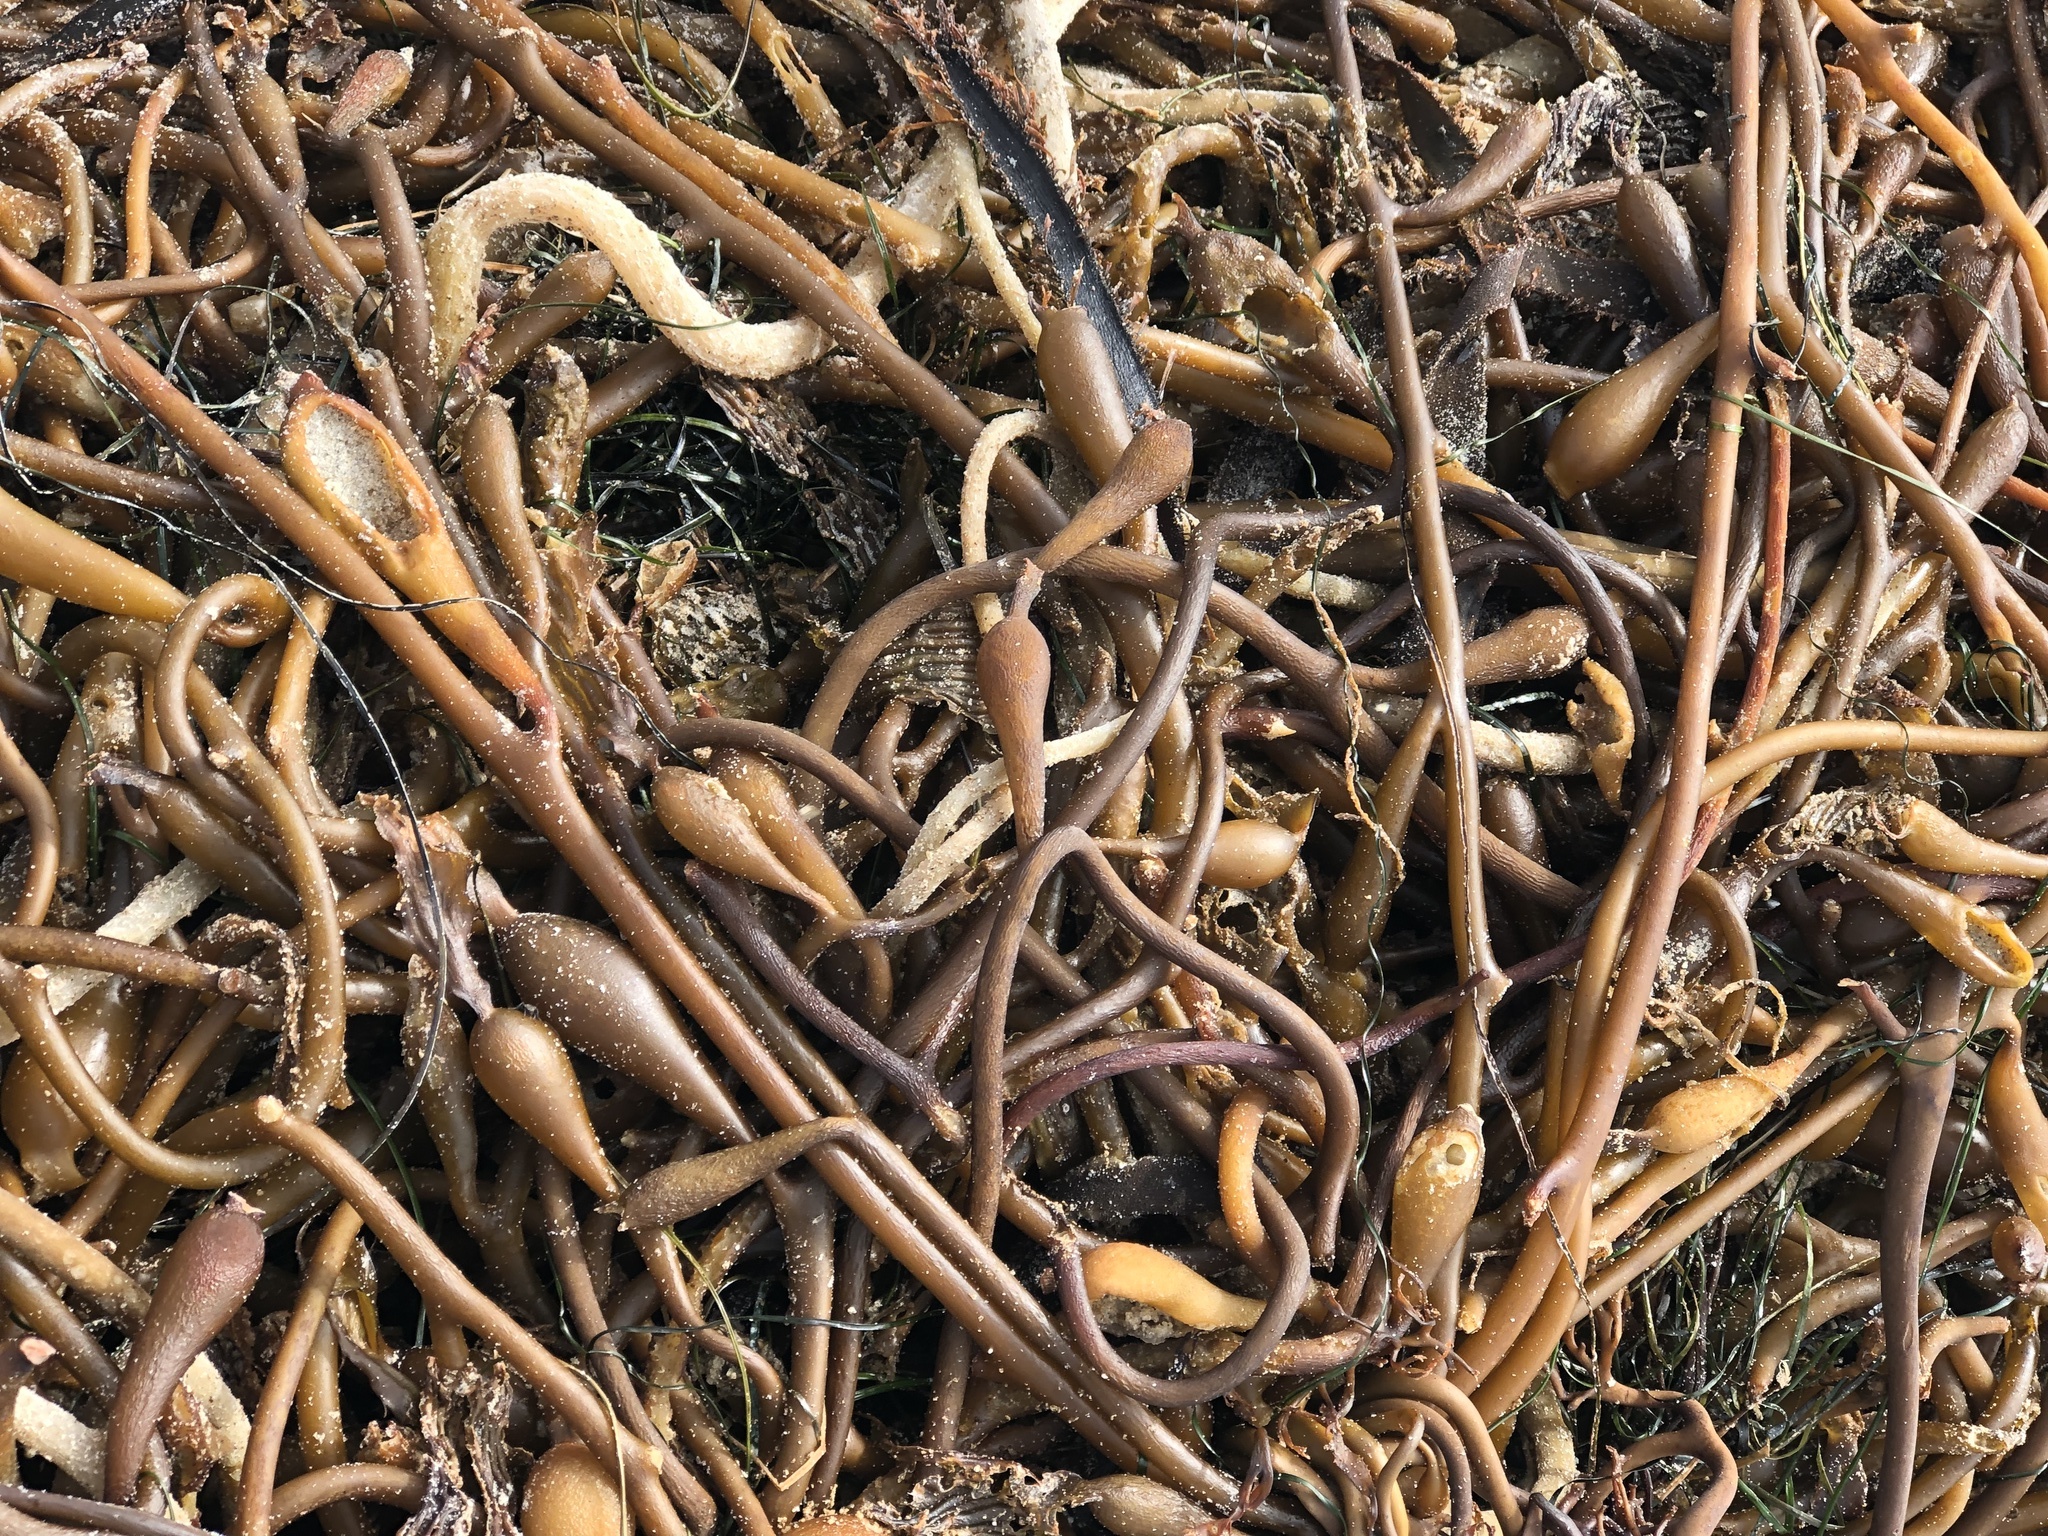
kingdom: Chromista
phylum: Ochrophyta
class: Phaeophyceae
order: Laminariales
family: Laminariaceae
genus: Macrocystis
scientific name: Macrocystis pyrifera
